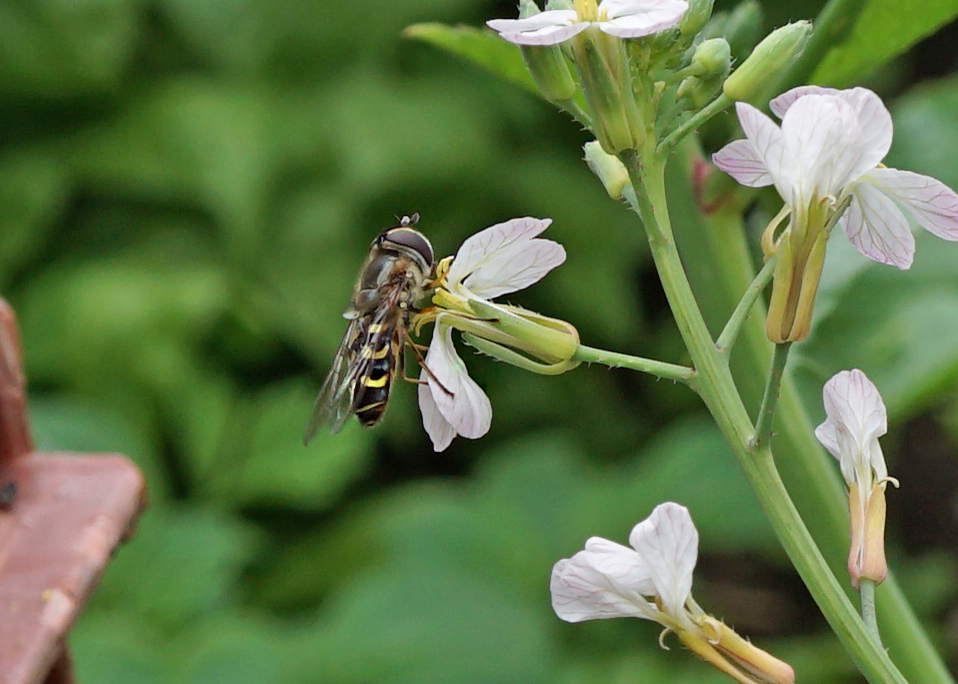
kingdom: Animalia
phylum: Arthropoda
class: Insecta
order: Diptera
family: Syrphidae
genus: Scaeva
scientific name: Scaeva selenitica
